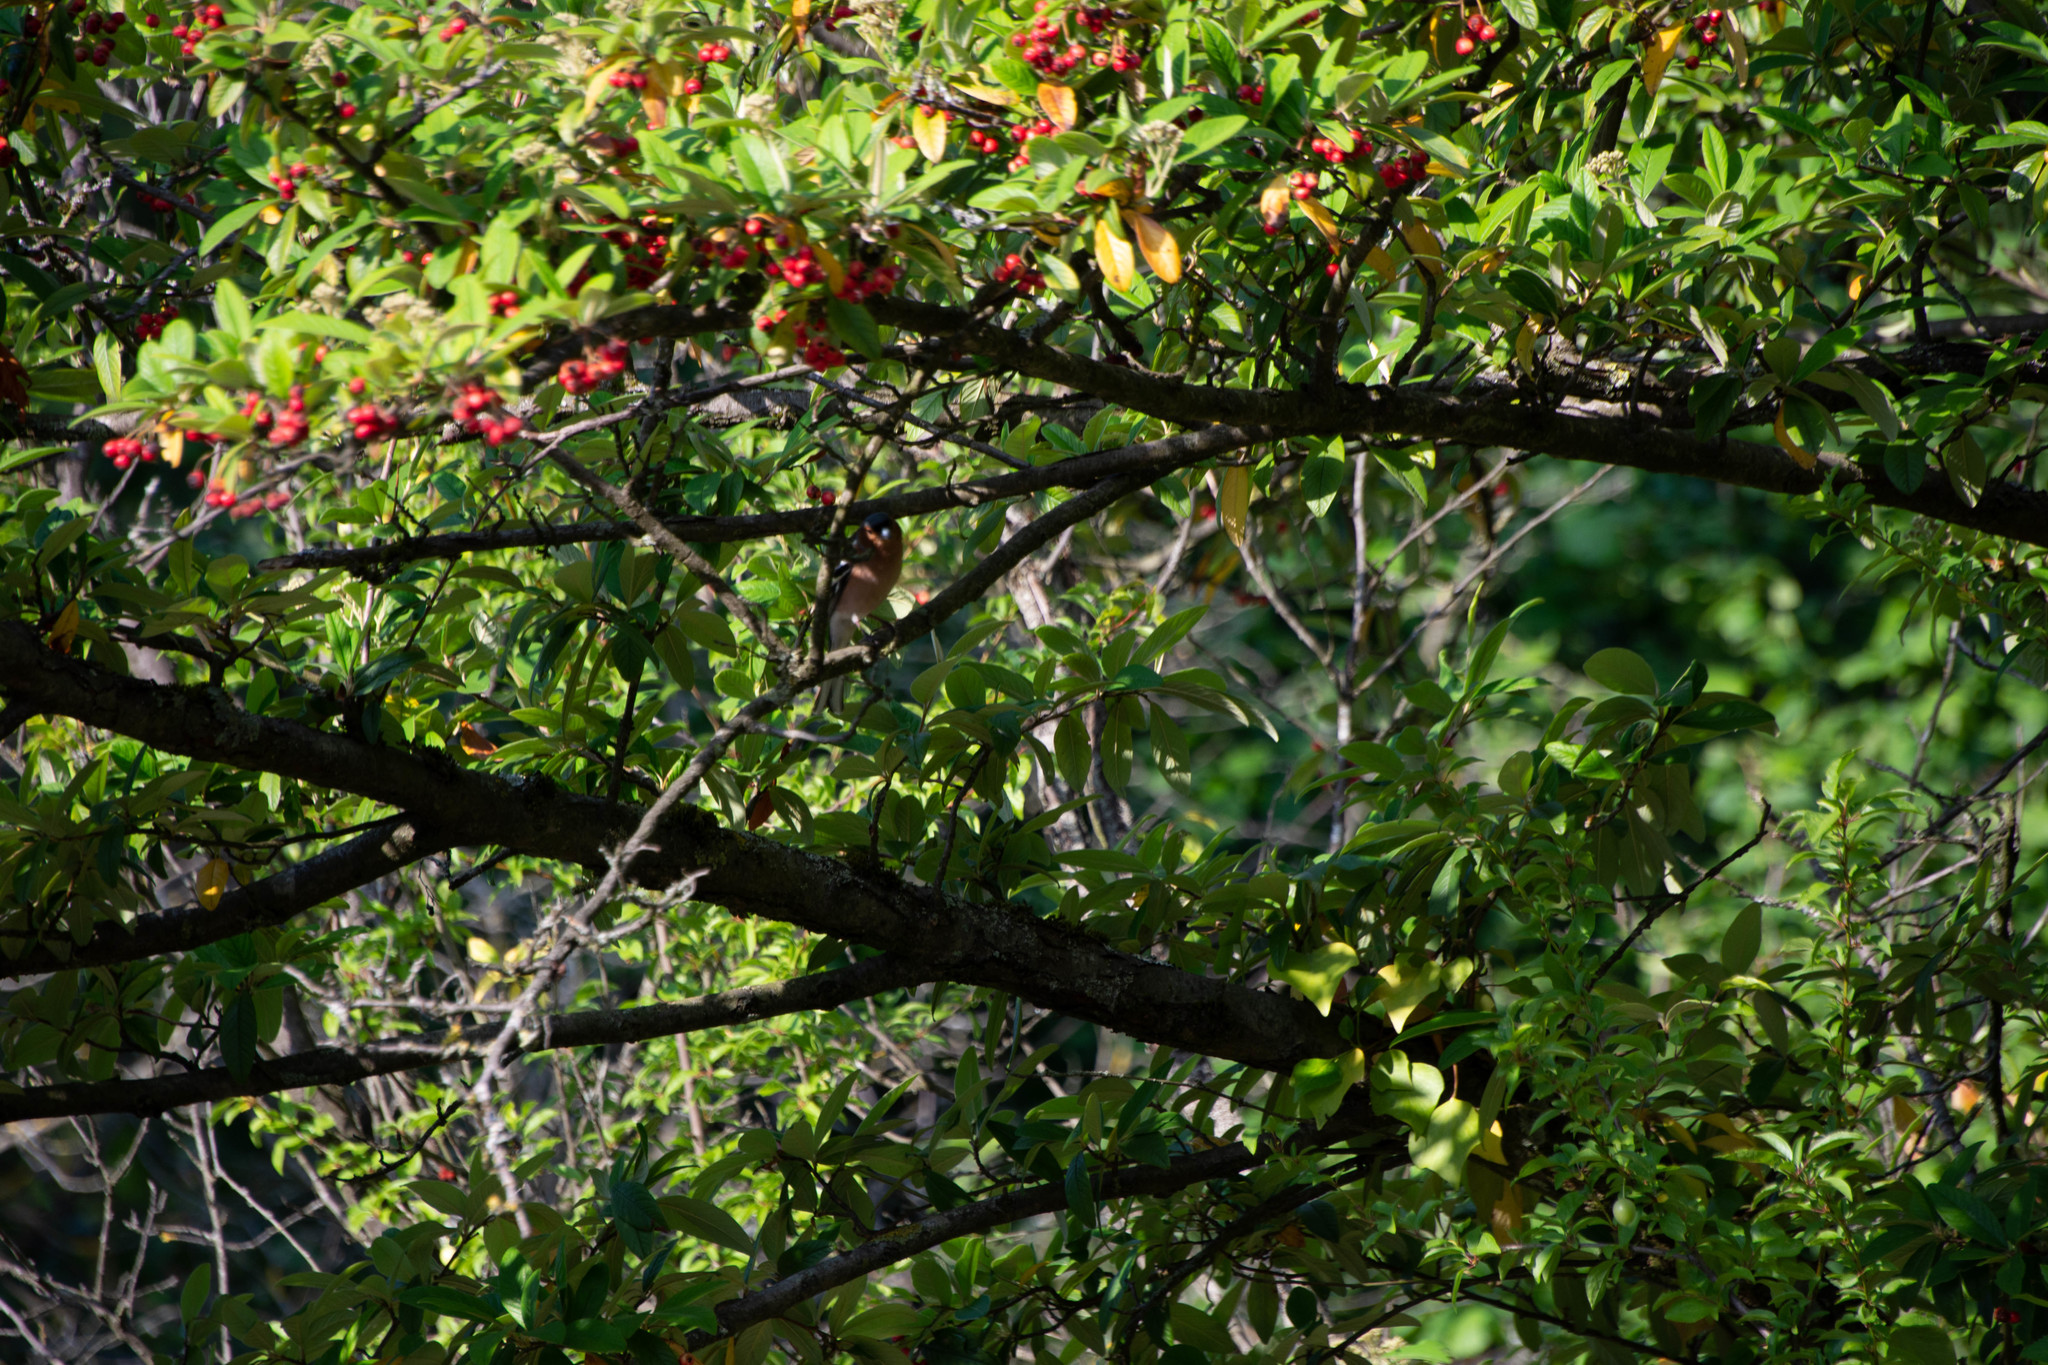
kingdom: Animalia
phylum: Chordata
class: Aves
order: Passeriformes
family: Fringillidae
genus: Fringilla
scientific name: Fringilla coelebs
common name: Common chaffinch
